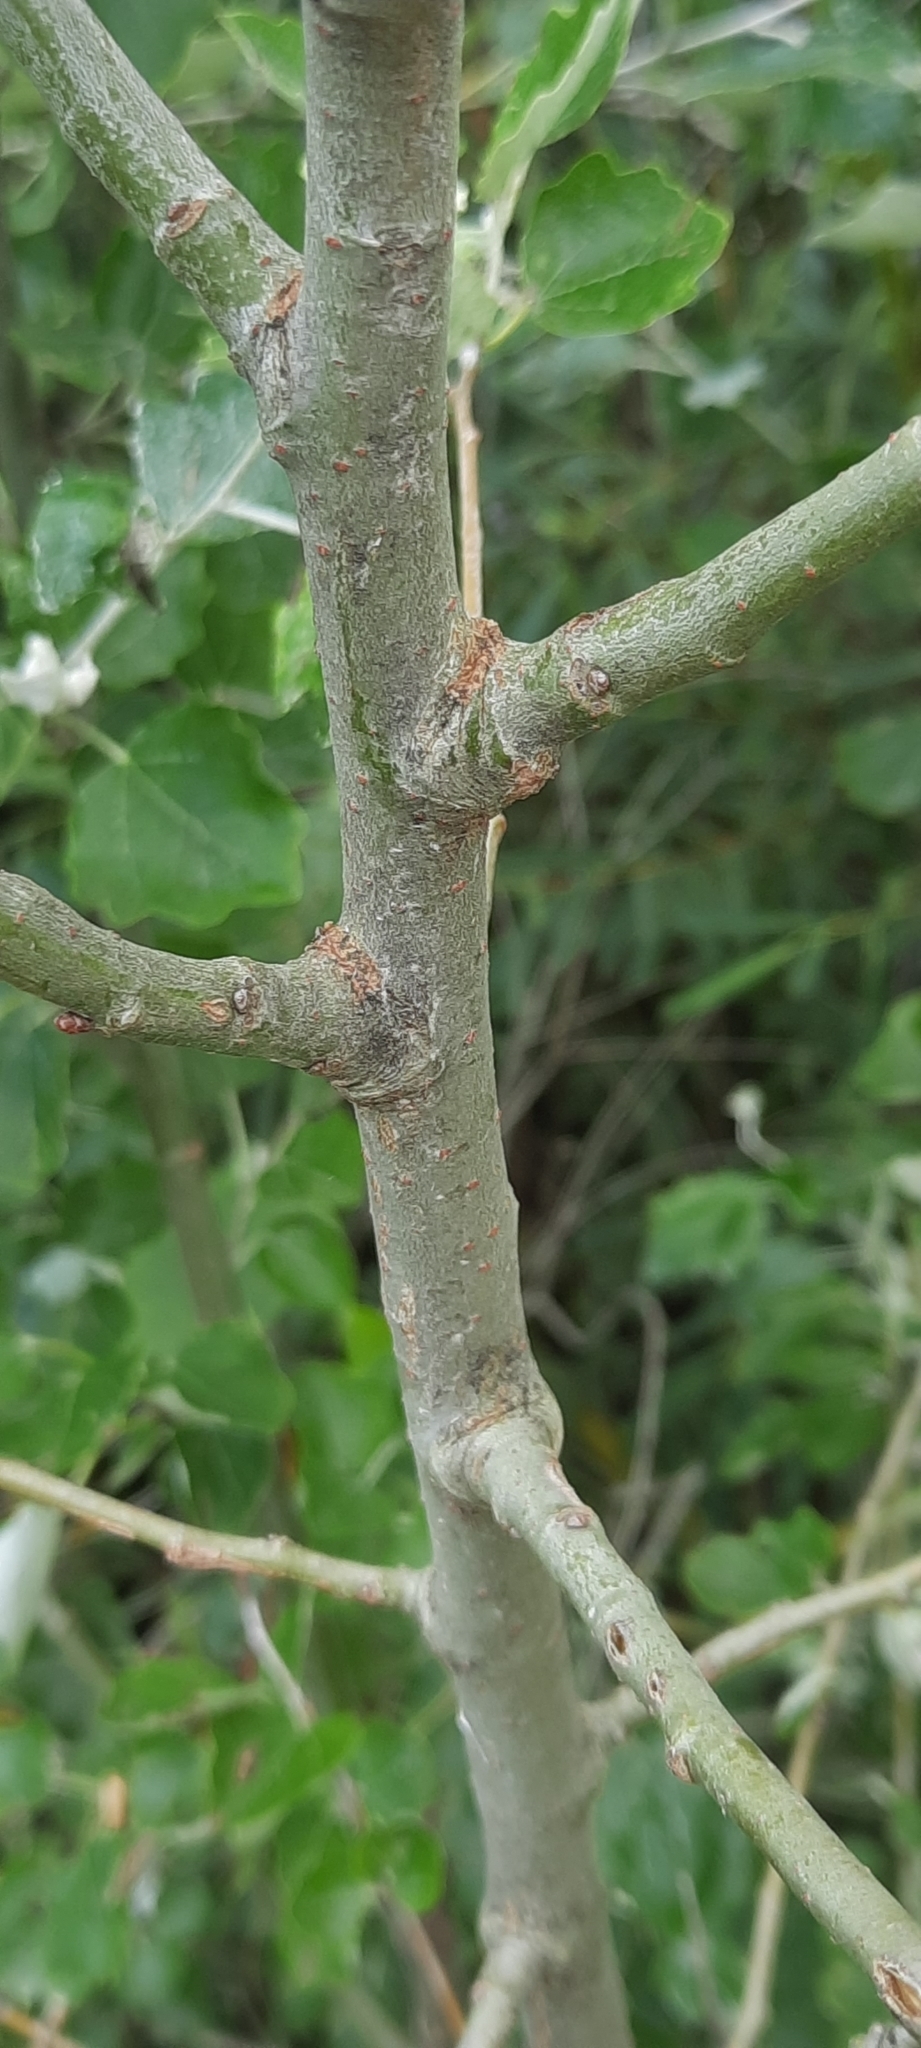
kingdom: Plantae
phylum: Tracheophyta
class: Magnoliopsida
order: Malpighiales
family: Salicaceae
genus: Populus
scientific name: Populus alba
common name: White poplar
